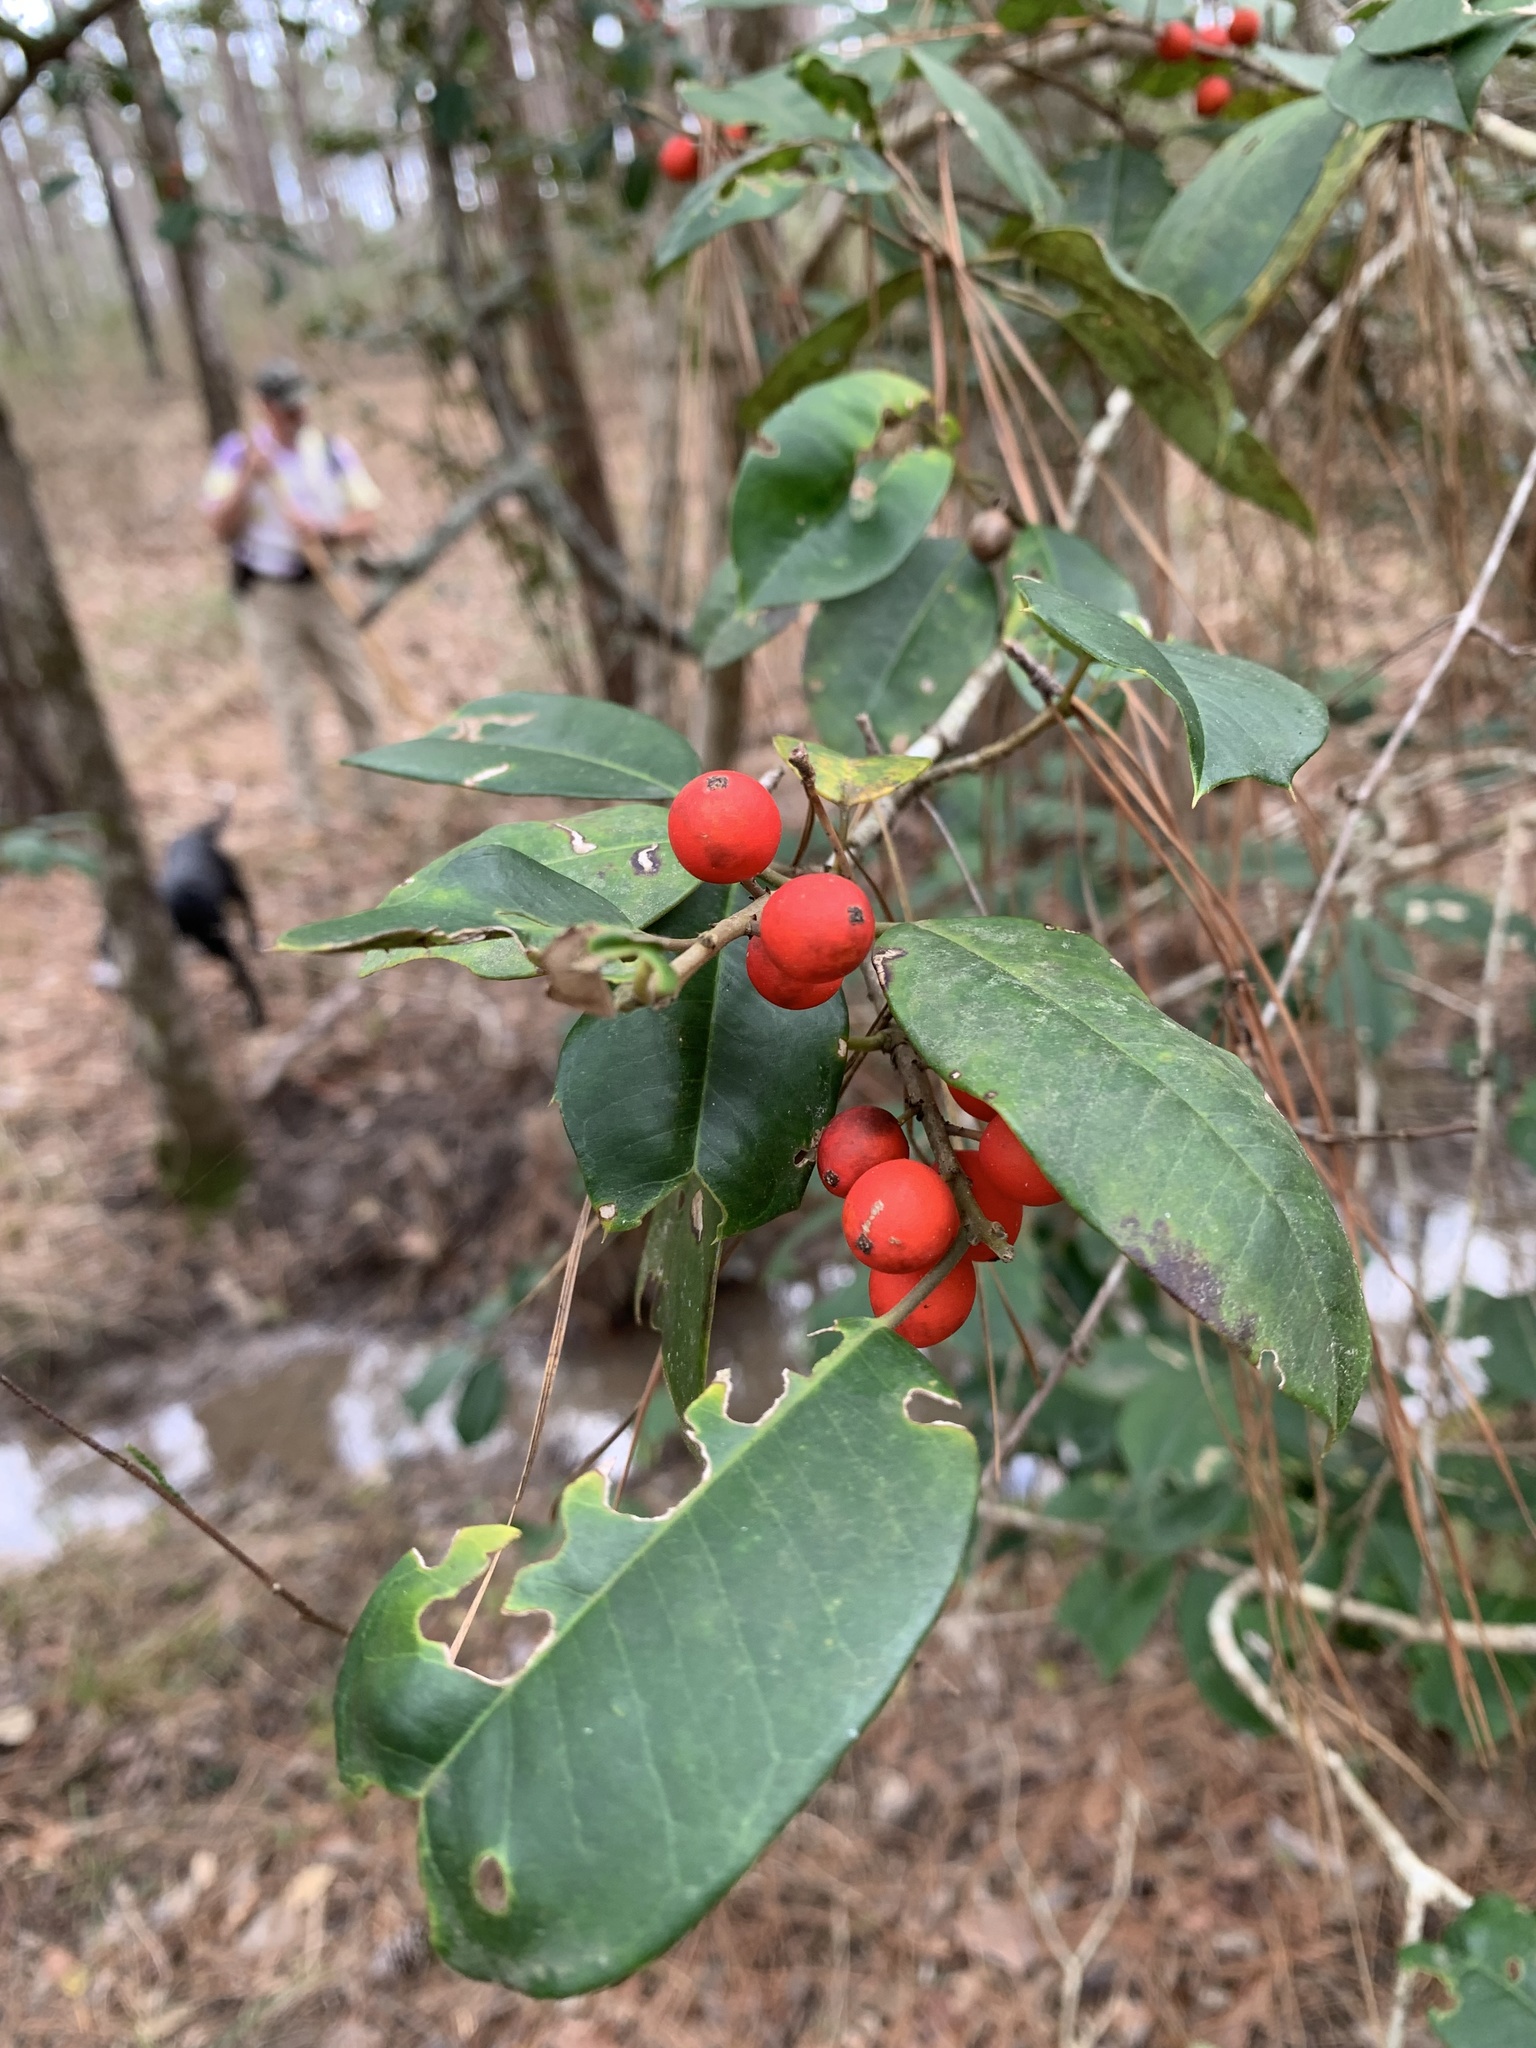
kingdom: Plantae
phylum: Tracheophyta
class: Magnoliopsida
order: Aquifoliales
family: Aquifoliaceae
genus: Ilex
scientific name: Ilex opaca
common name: American holly
